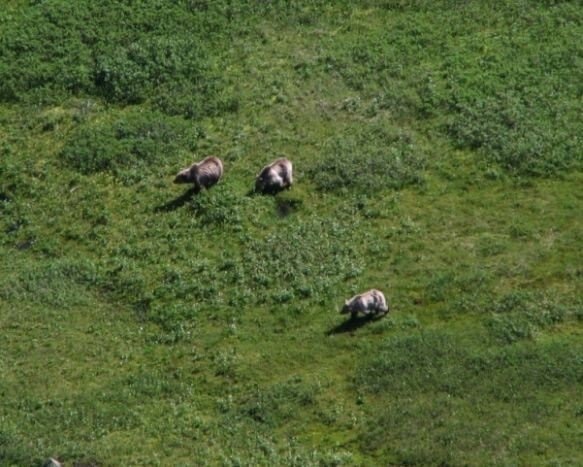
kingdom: Animalia
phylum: Chordata
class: Mammalia
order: Carnivora
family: Ursidae
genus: Ursus
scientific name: Ursus arctos
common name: Brown bear
